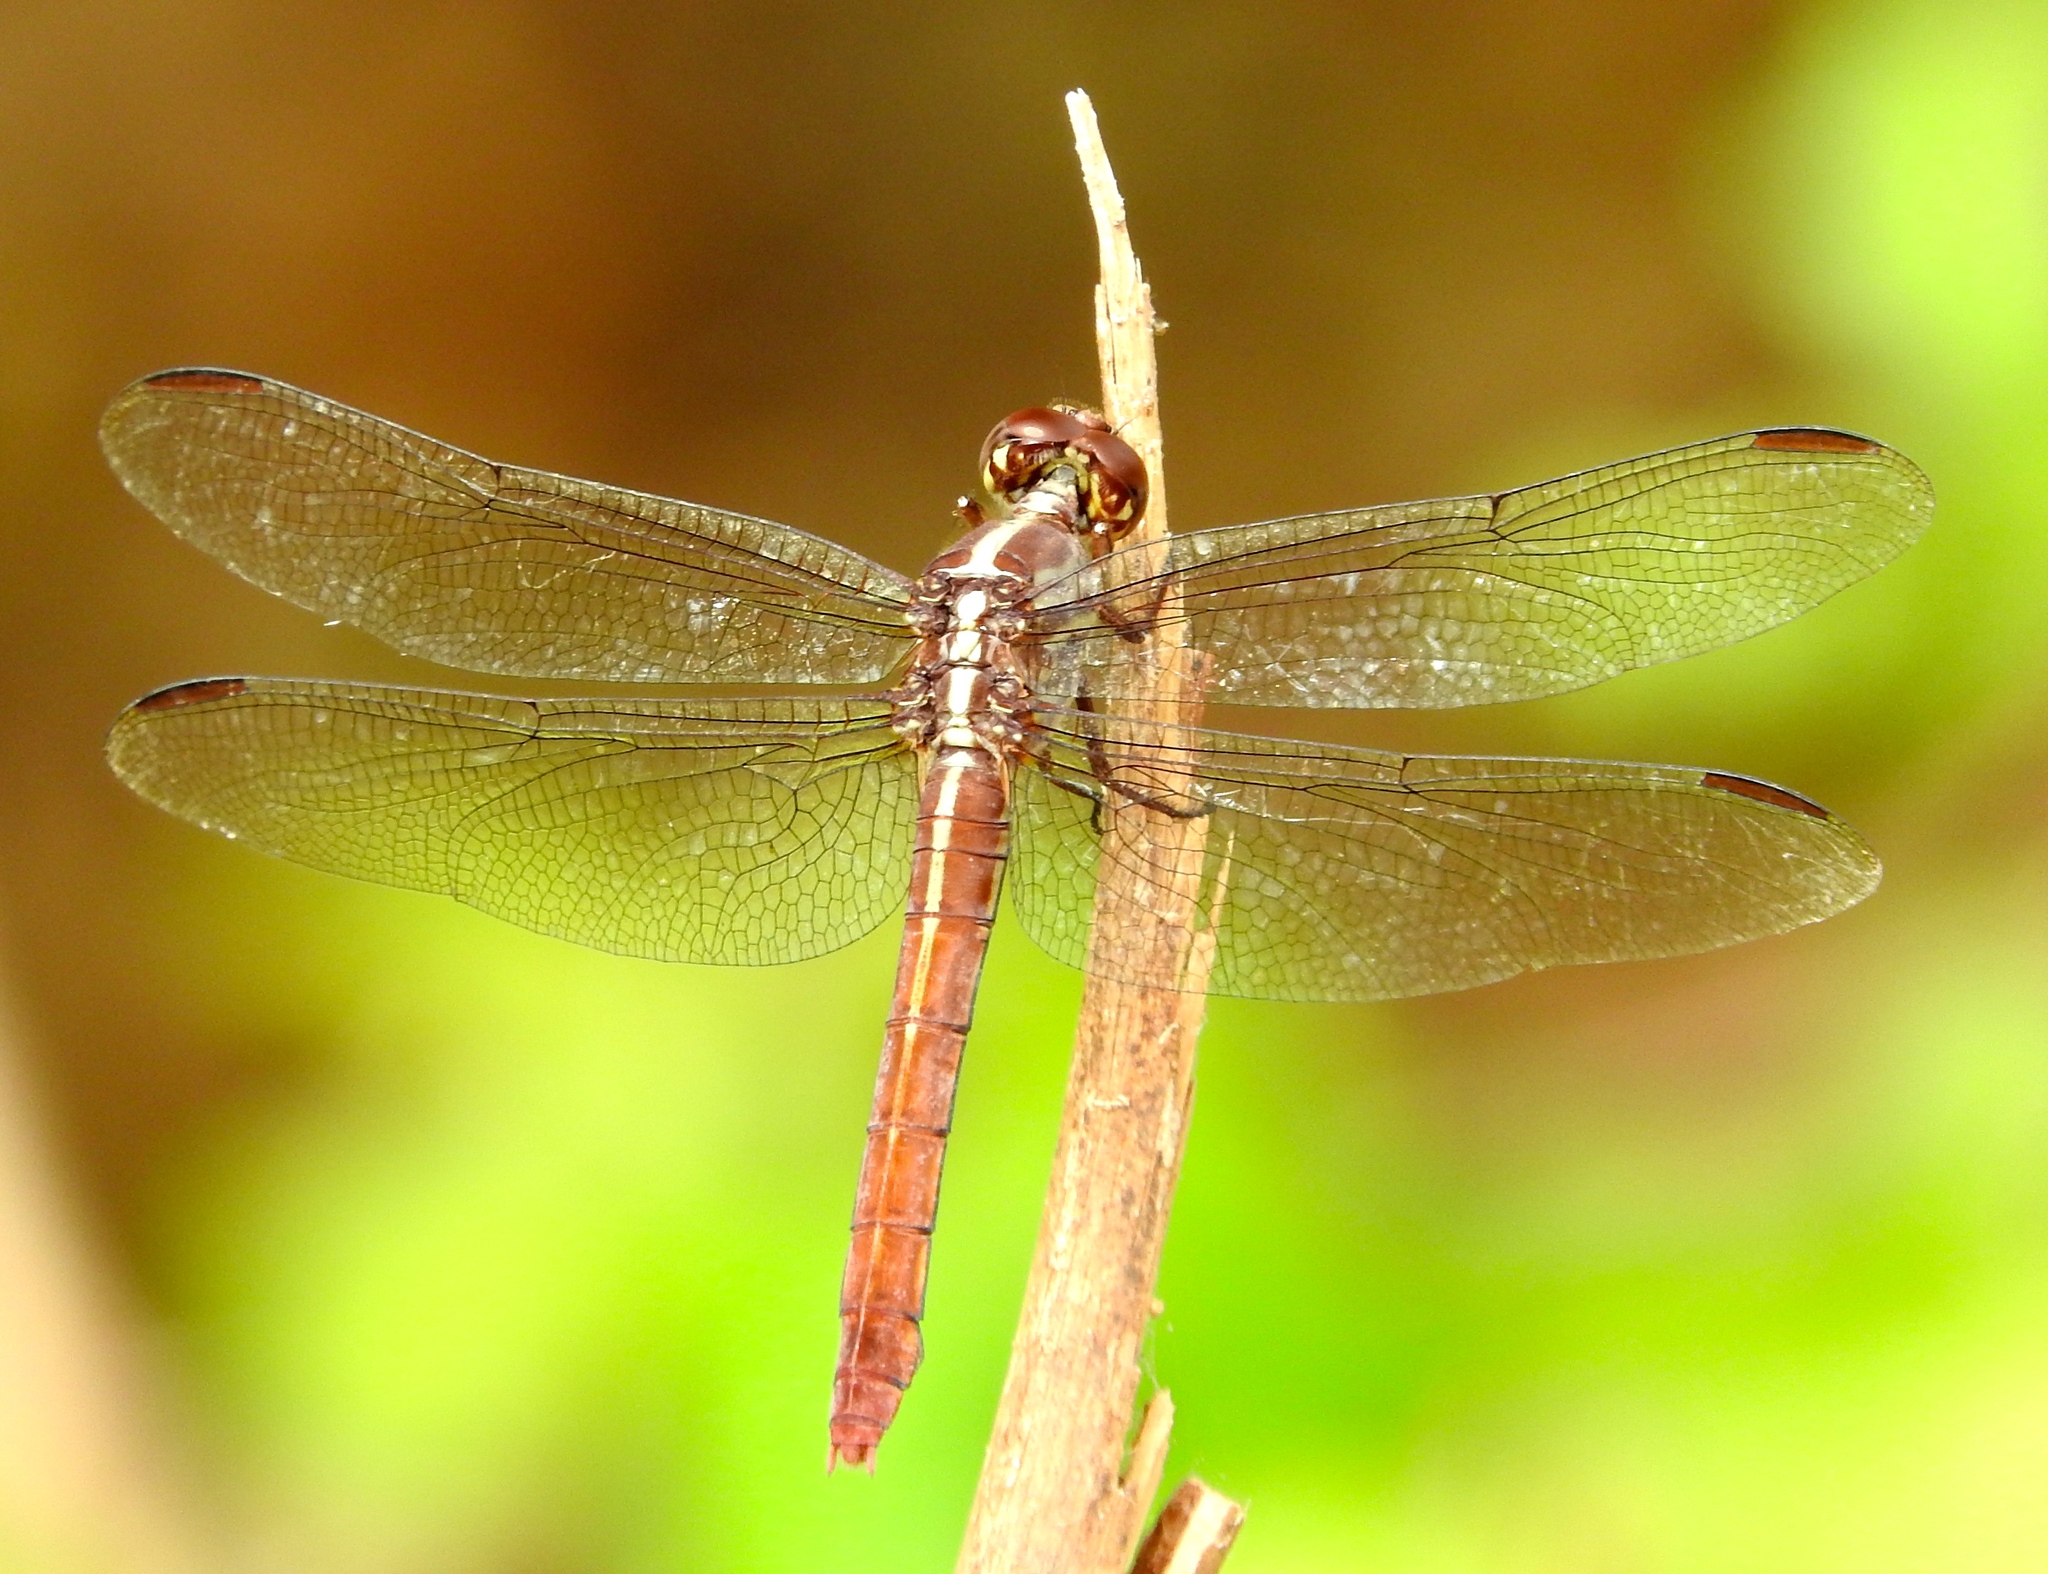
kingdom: Animalia
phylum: Arthropoda
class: Insecta
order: Odonata
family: Libellulidae
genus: Orthemis
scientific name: Orthemis ferruginea
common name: Roseate skimmer
